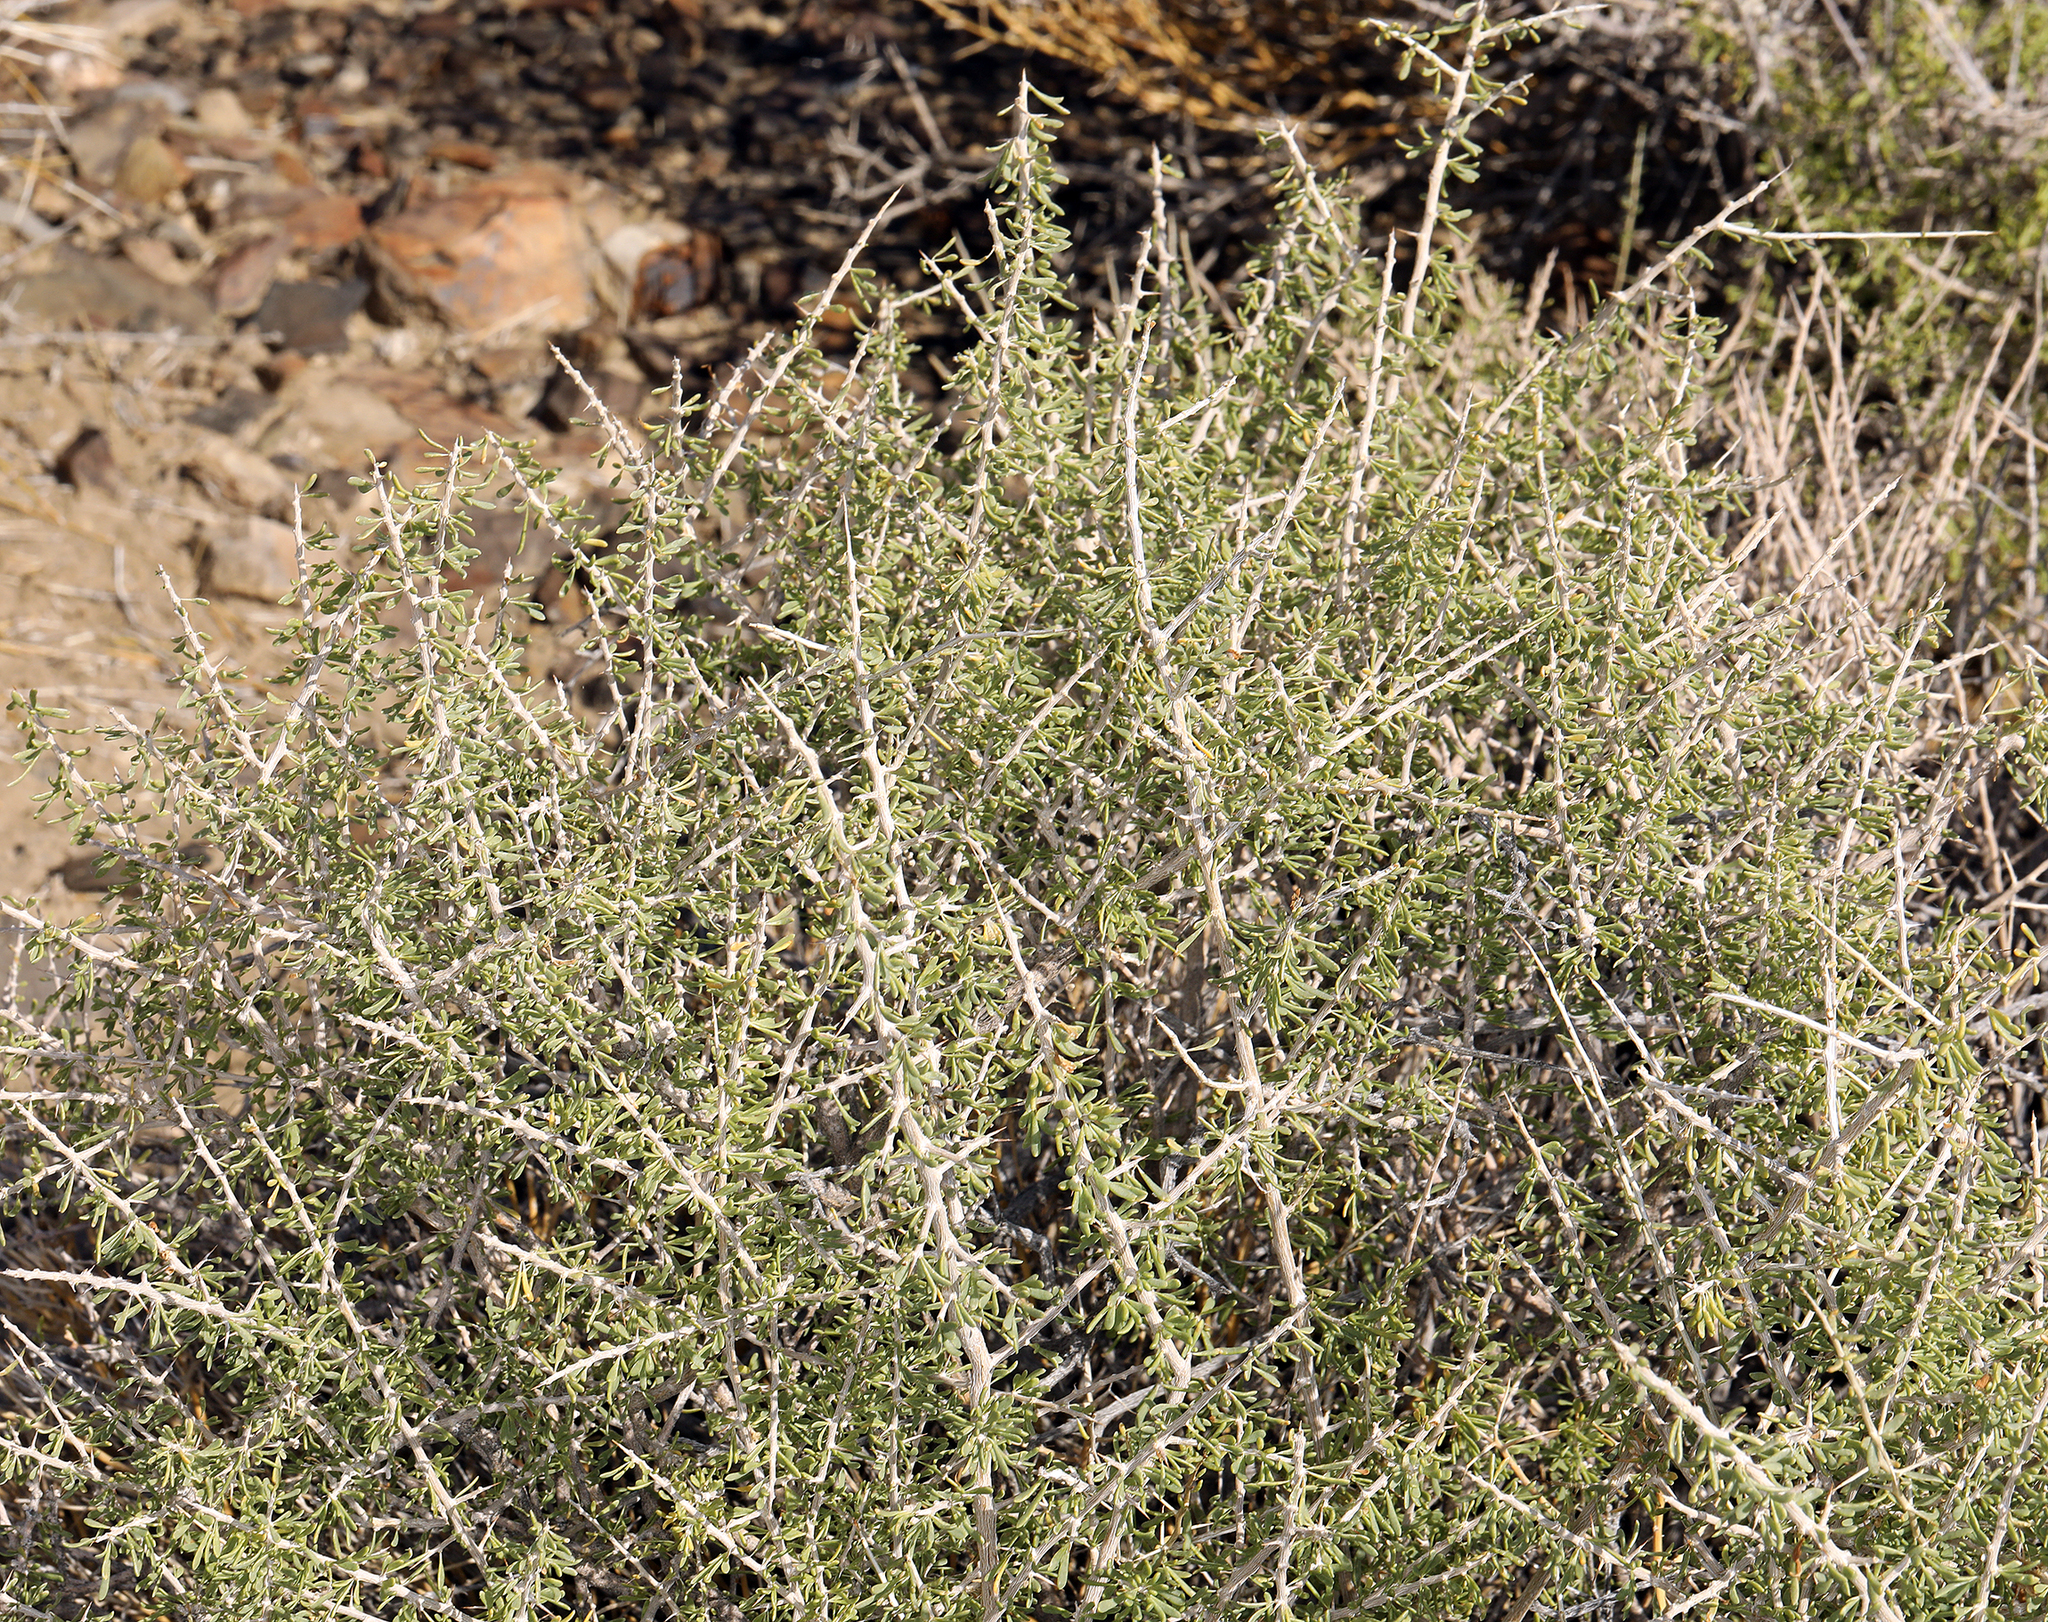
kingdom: Plantae
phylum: Tracheophyta
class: Magnoliopsida
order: Solanales
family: Solanaceae
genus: Lycium
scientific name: Lycium andersonii
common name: Water-jacket
